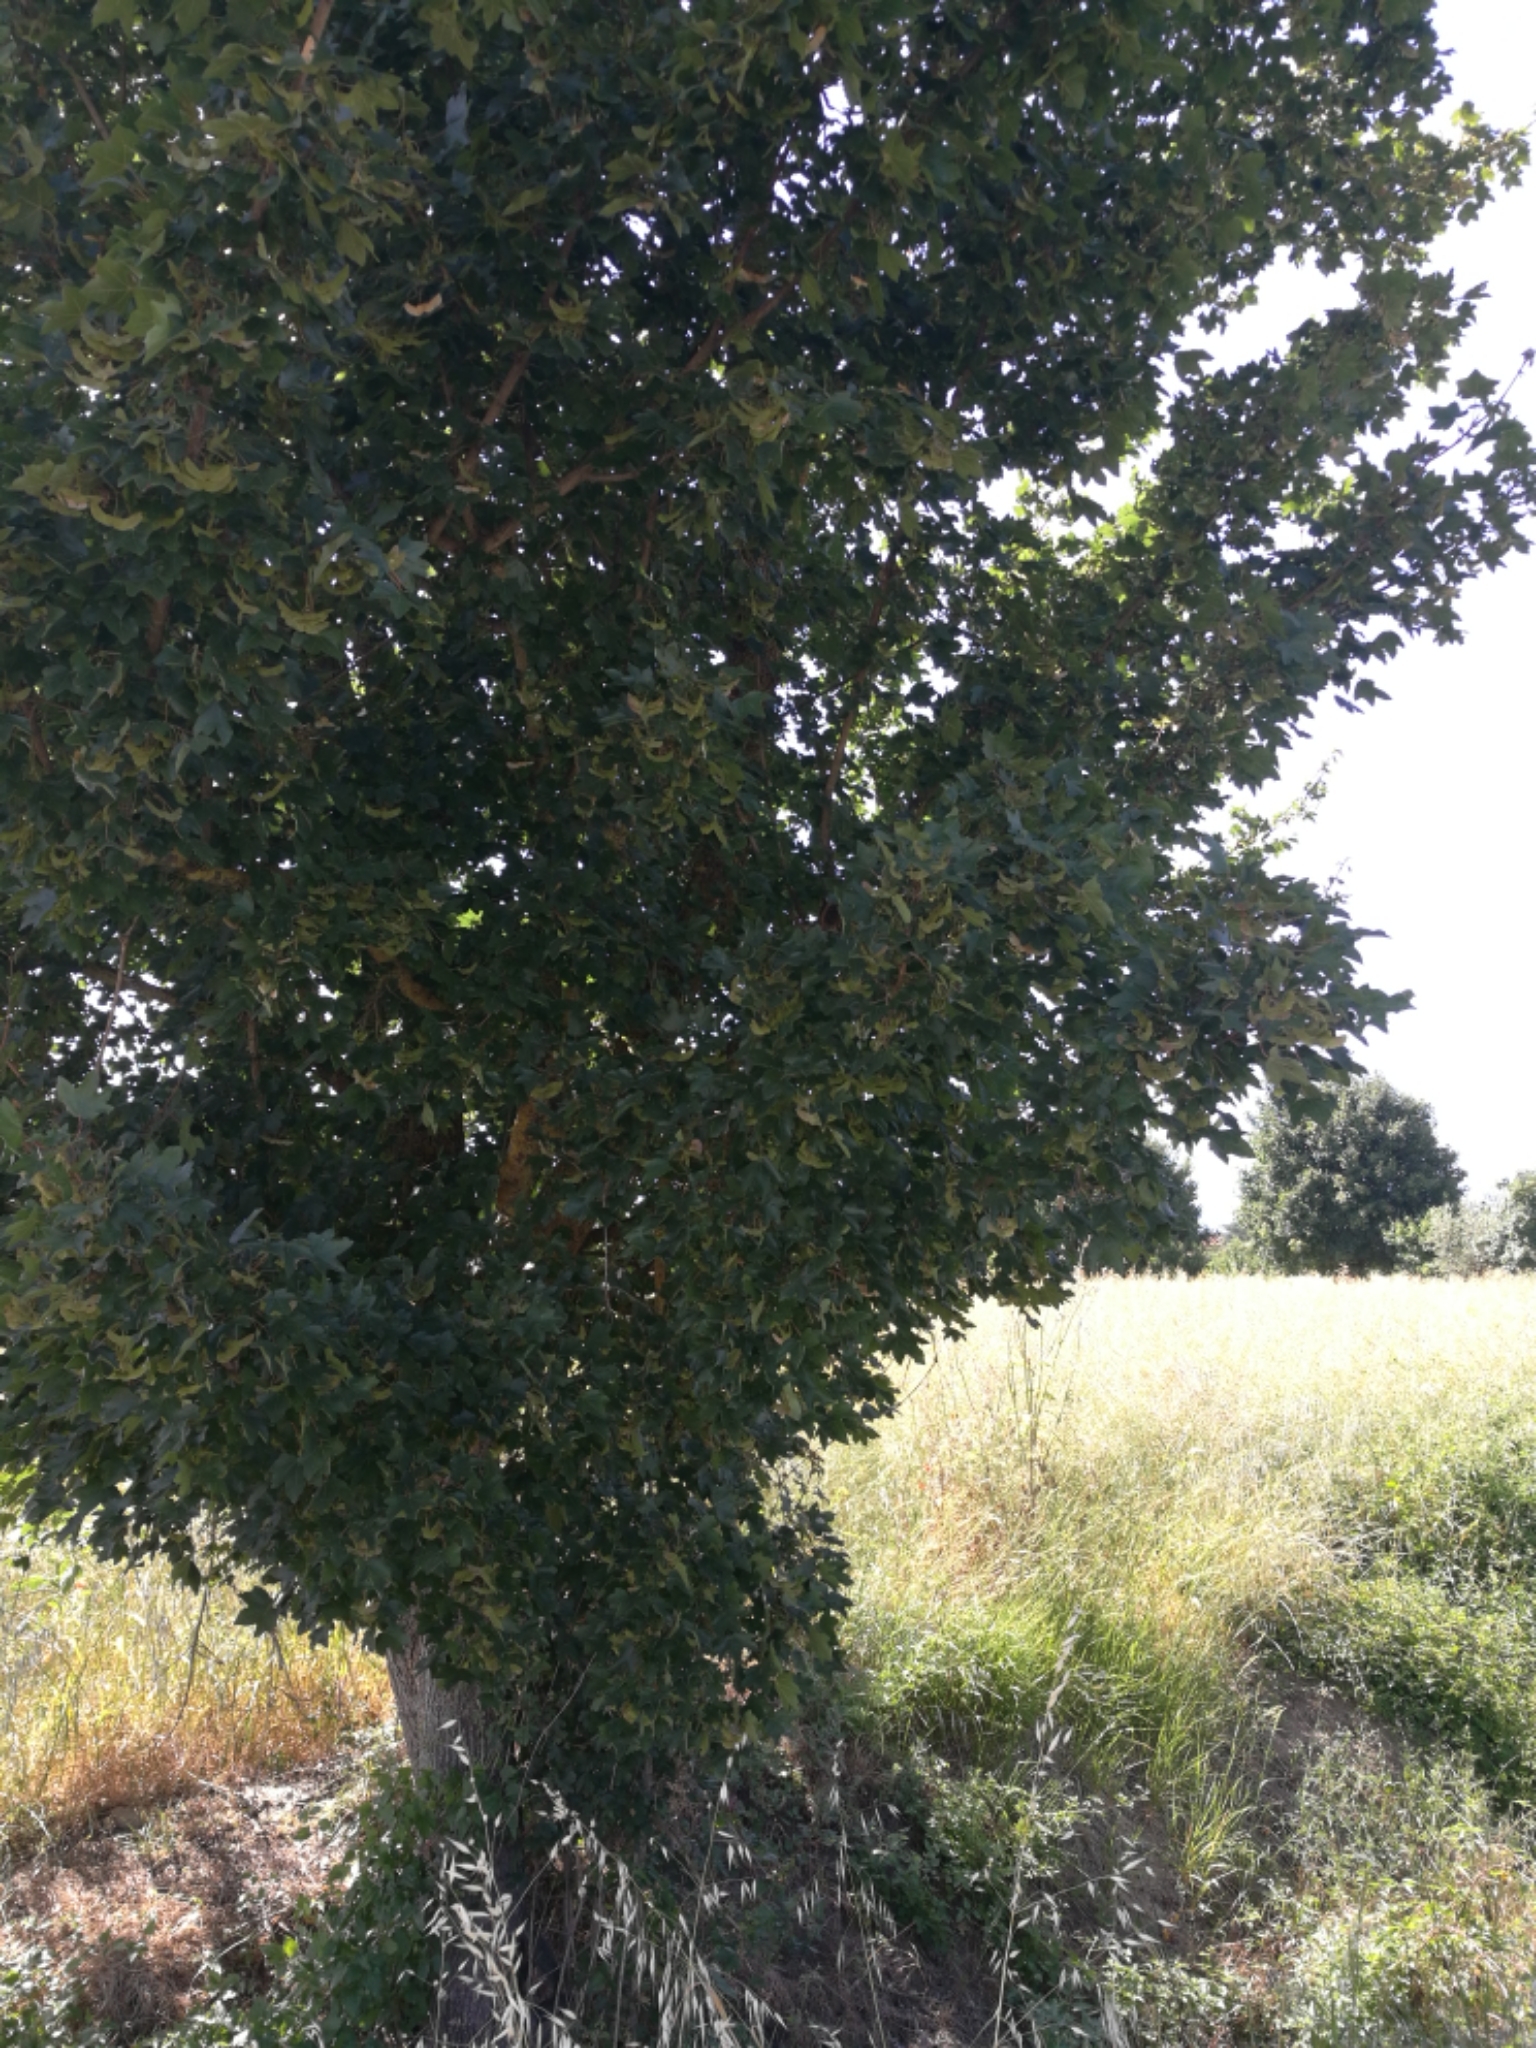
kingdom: Plantae
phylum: Tracheophyta
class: Magnoliopsida
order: Sapindales
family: Sapindaceae
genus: Acer
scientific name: Acer campestre
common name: Field maple
